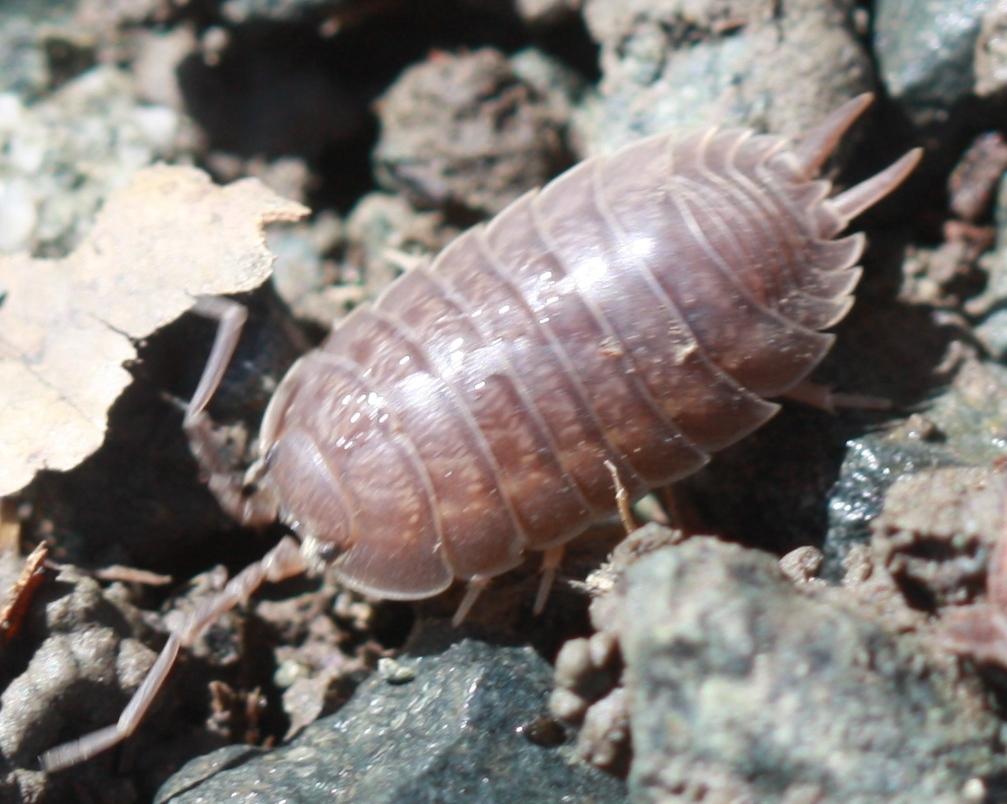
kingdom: Animalia
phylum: Arthropoda
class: Malacostraca
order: Isopoda
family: Porcellionidae
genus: Porcellio
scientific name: Porcellio laevis
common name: Swift woodlouse
